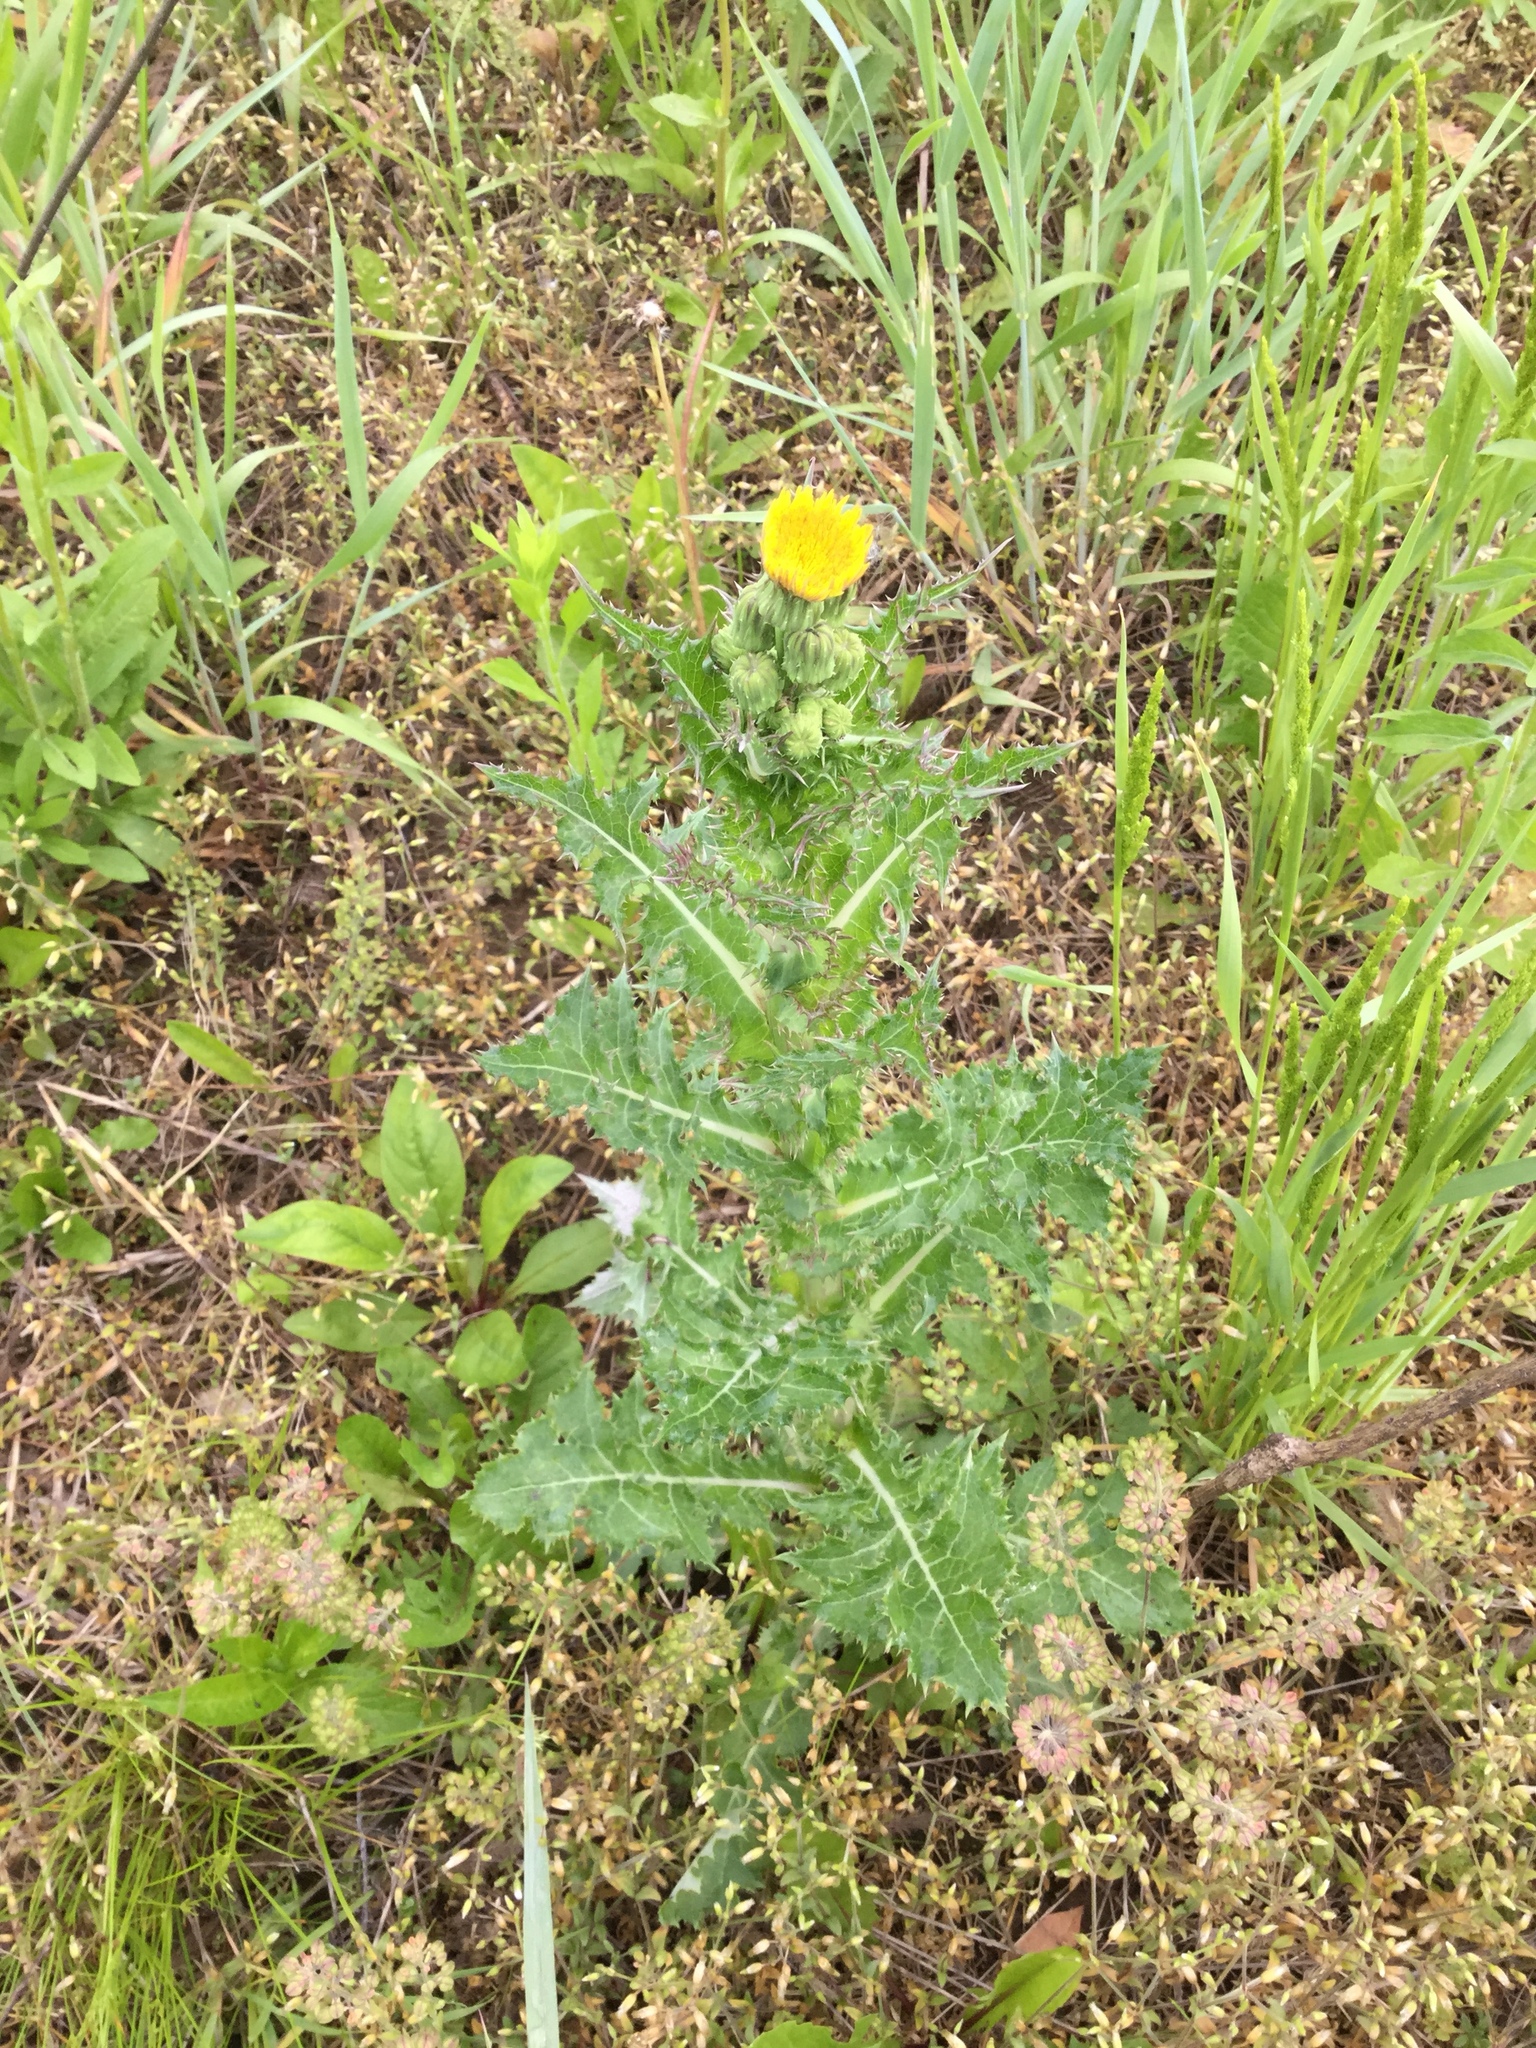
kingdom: Plantae
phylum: Tracheophyta
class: Magnoliopsida
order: Asterales
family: Asteraceae
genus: Sonchus
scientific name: Sonchus asper
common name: Prickly sow-thistle
